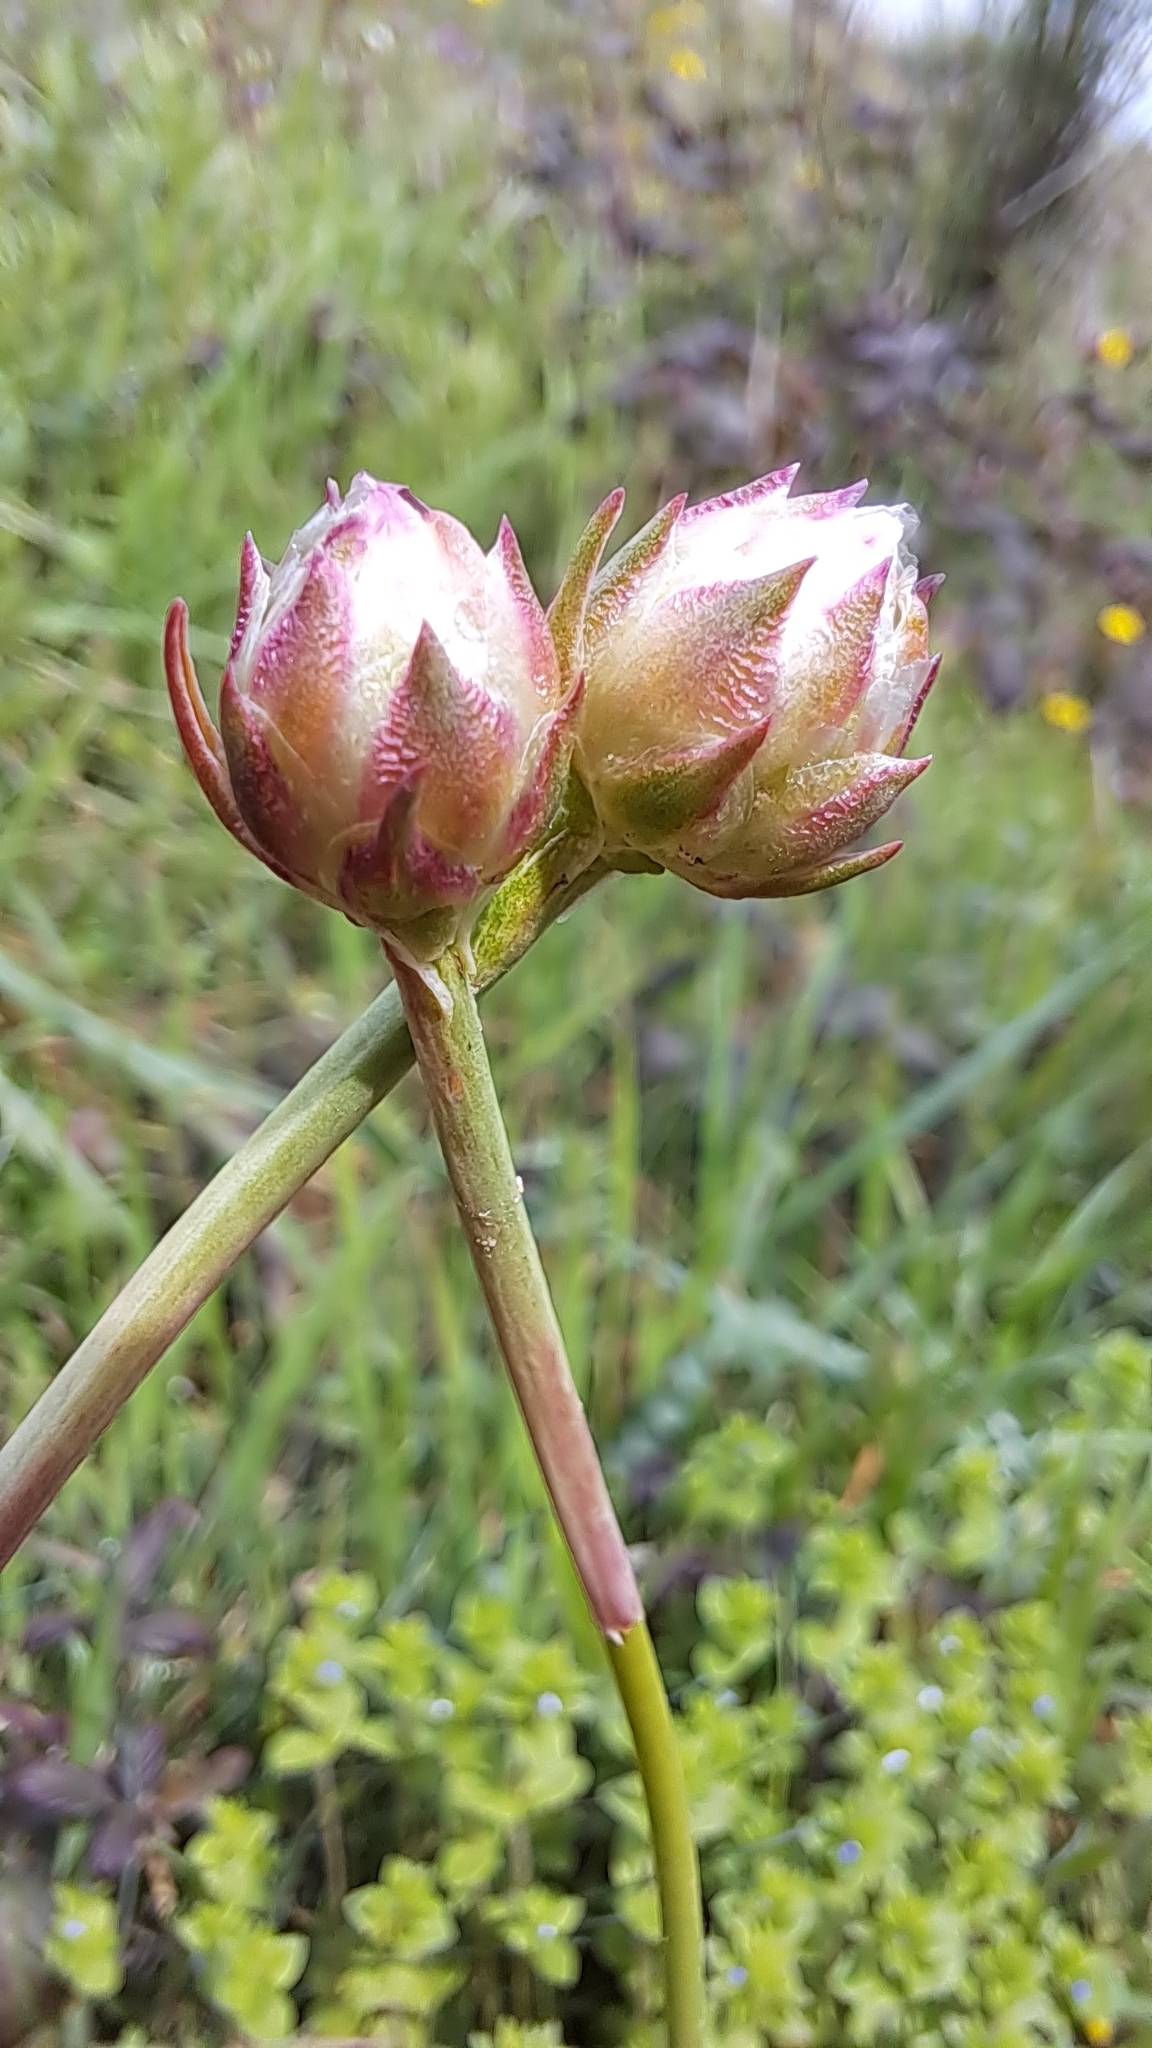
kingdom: Plantae
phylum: Tracheophyta
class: Magnoliopsida
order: Caryophyllales
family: Plumbaginaceae
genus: Armeria
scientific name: Armeria arenaria
